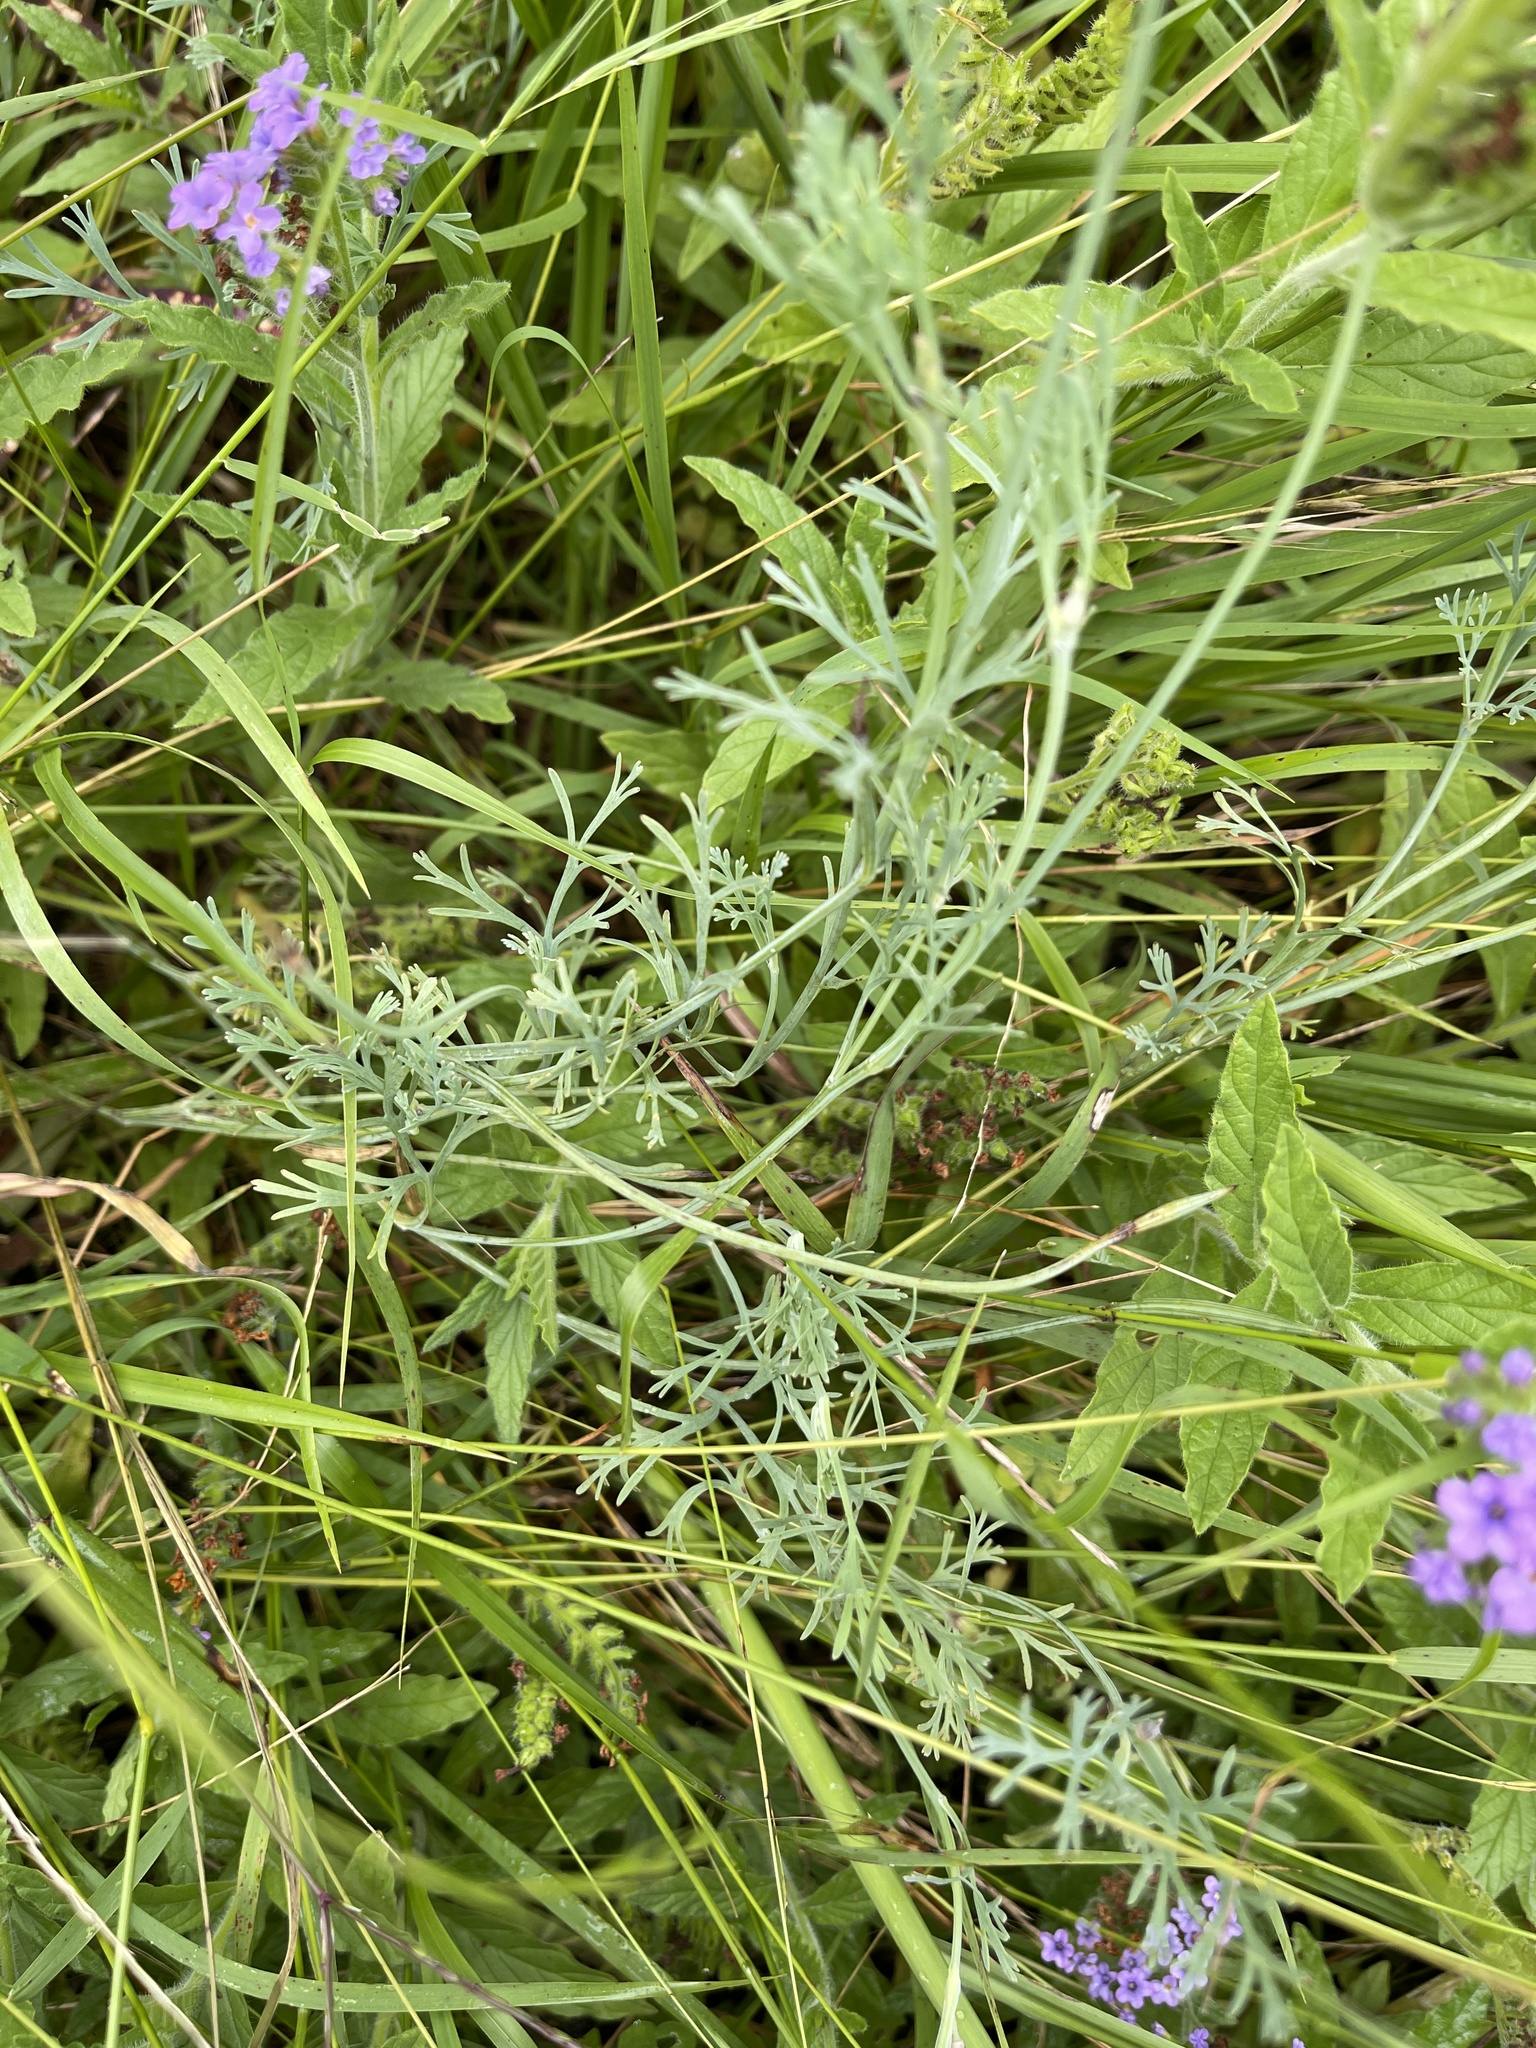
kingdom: Plantae
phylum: Tracheophyta
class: Magnoliopsida
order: Ranunculales
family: Papaveraceae
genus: Eschscholzia
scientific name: Eschscholzia californica
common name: California poppy
